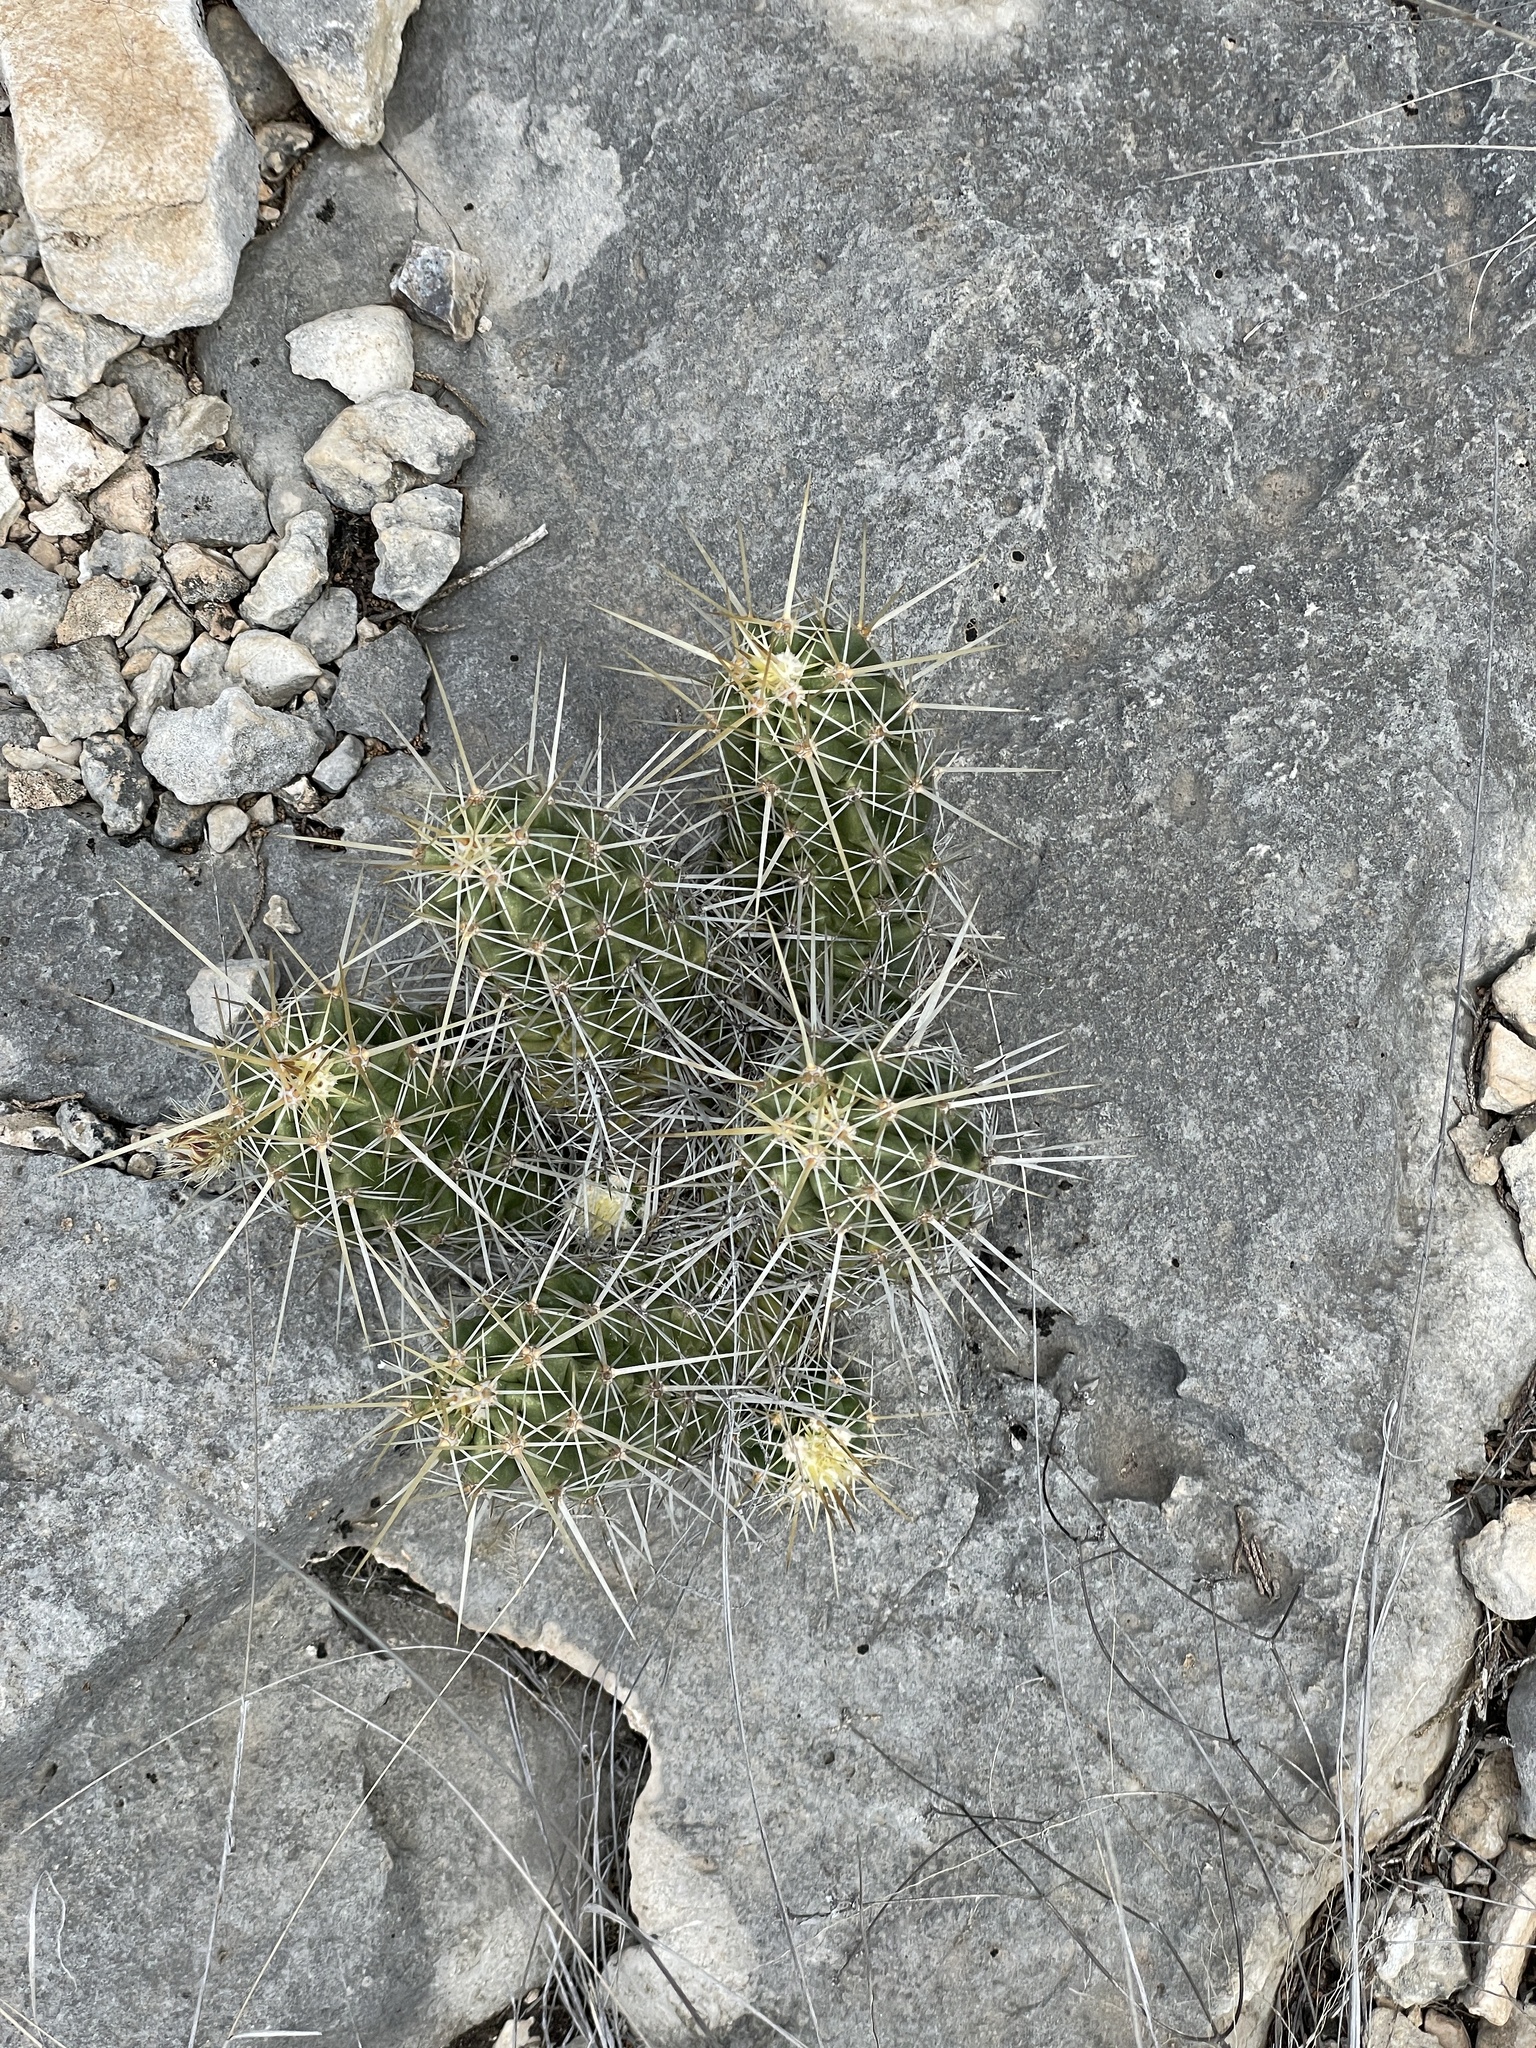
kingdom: Plantae
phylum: Tracheophyta
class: Magnoliopsida
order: Caryophyllales
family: Cactaceae
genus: Echinocereus
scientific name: Echinocereus enneacanthus
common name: Pitaya
